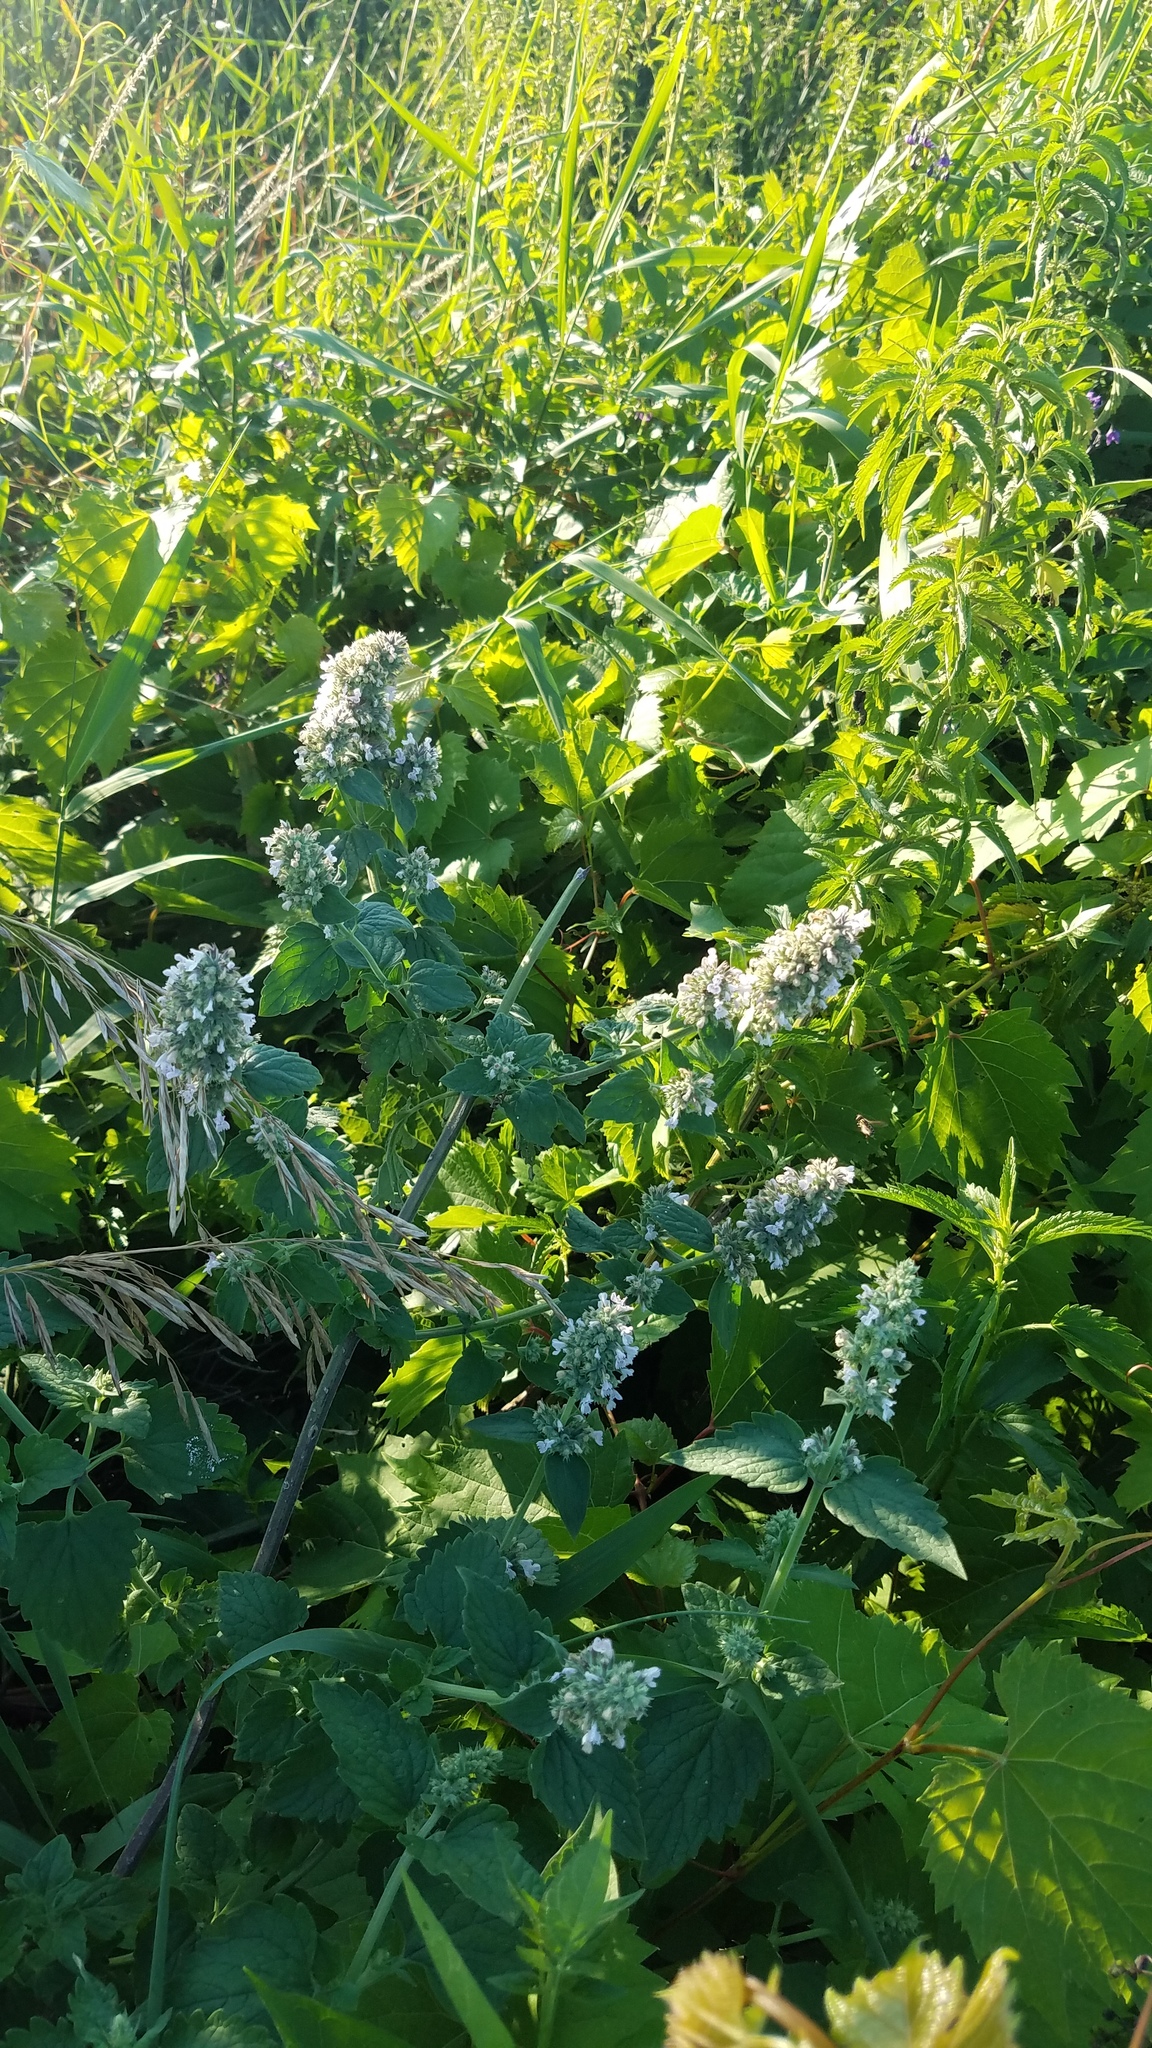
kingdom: Plantae
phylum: Tracheophyta
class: Magnoliopsida
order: Lamiales
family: Lamiaceae
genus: Nepeta
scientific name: Nepeta cataria
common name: Catnip
